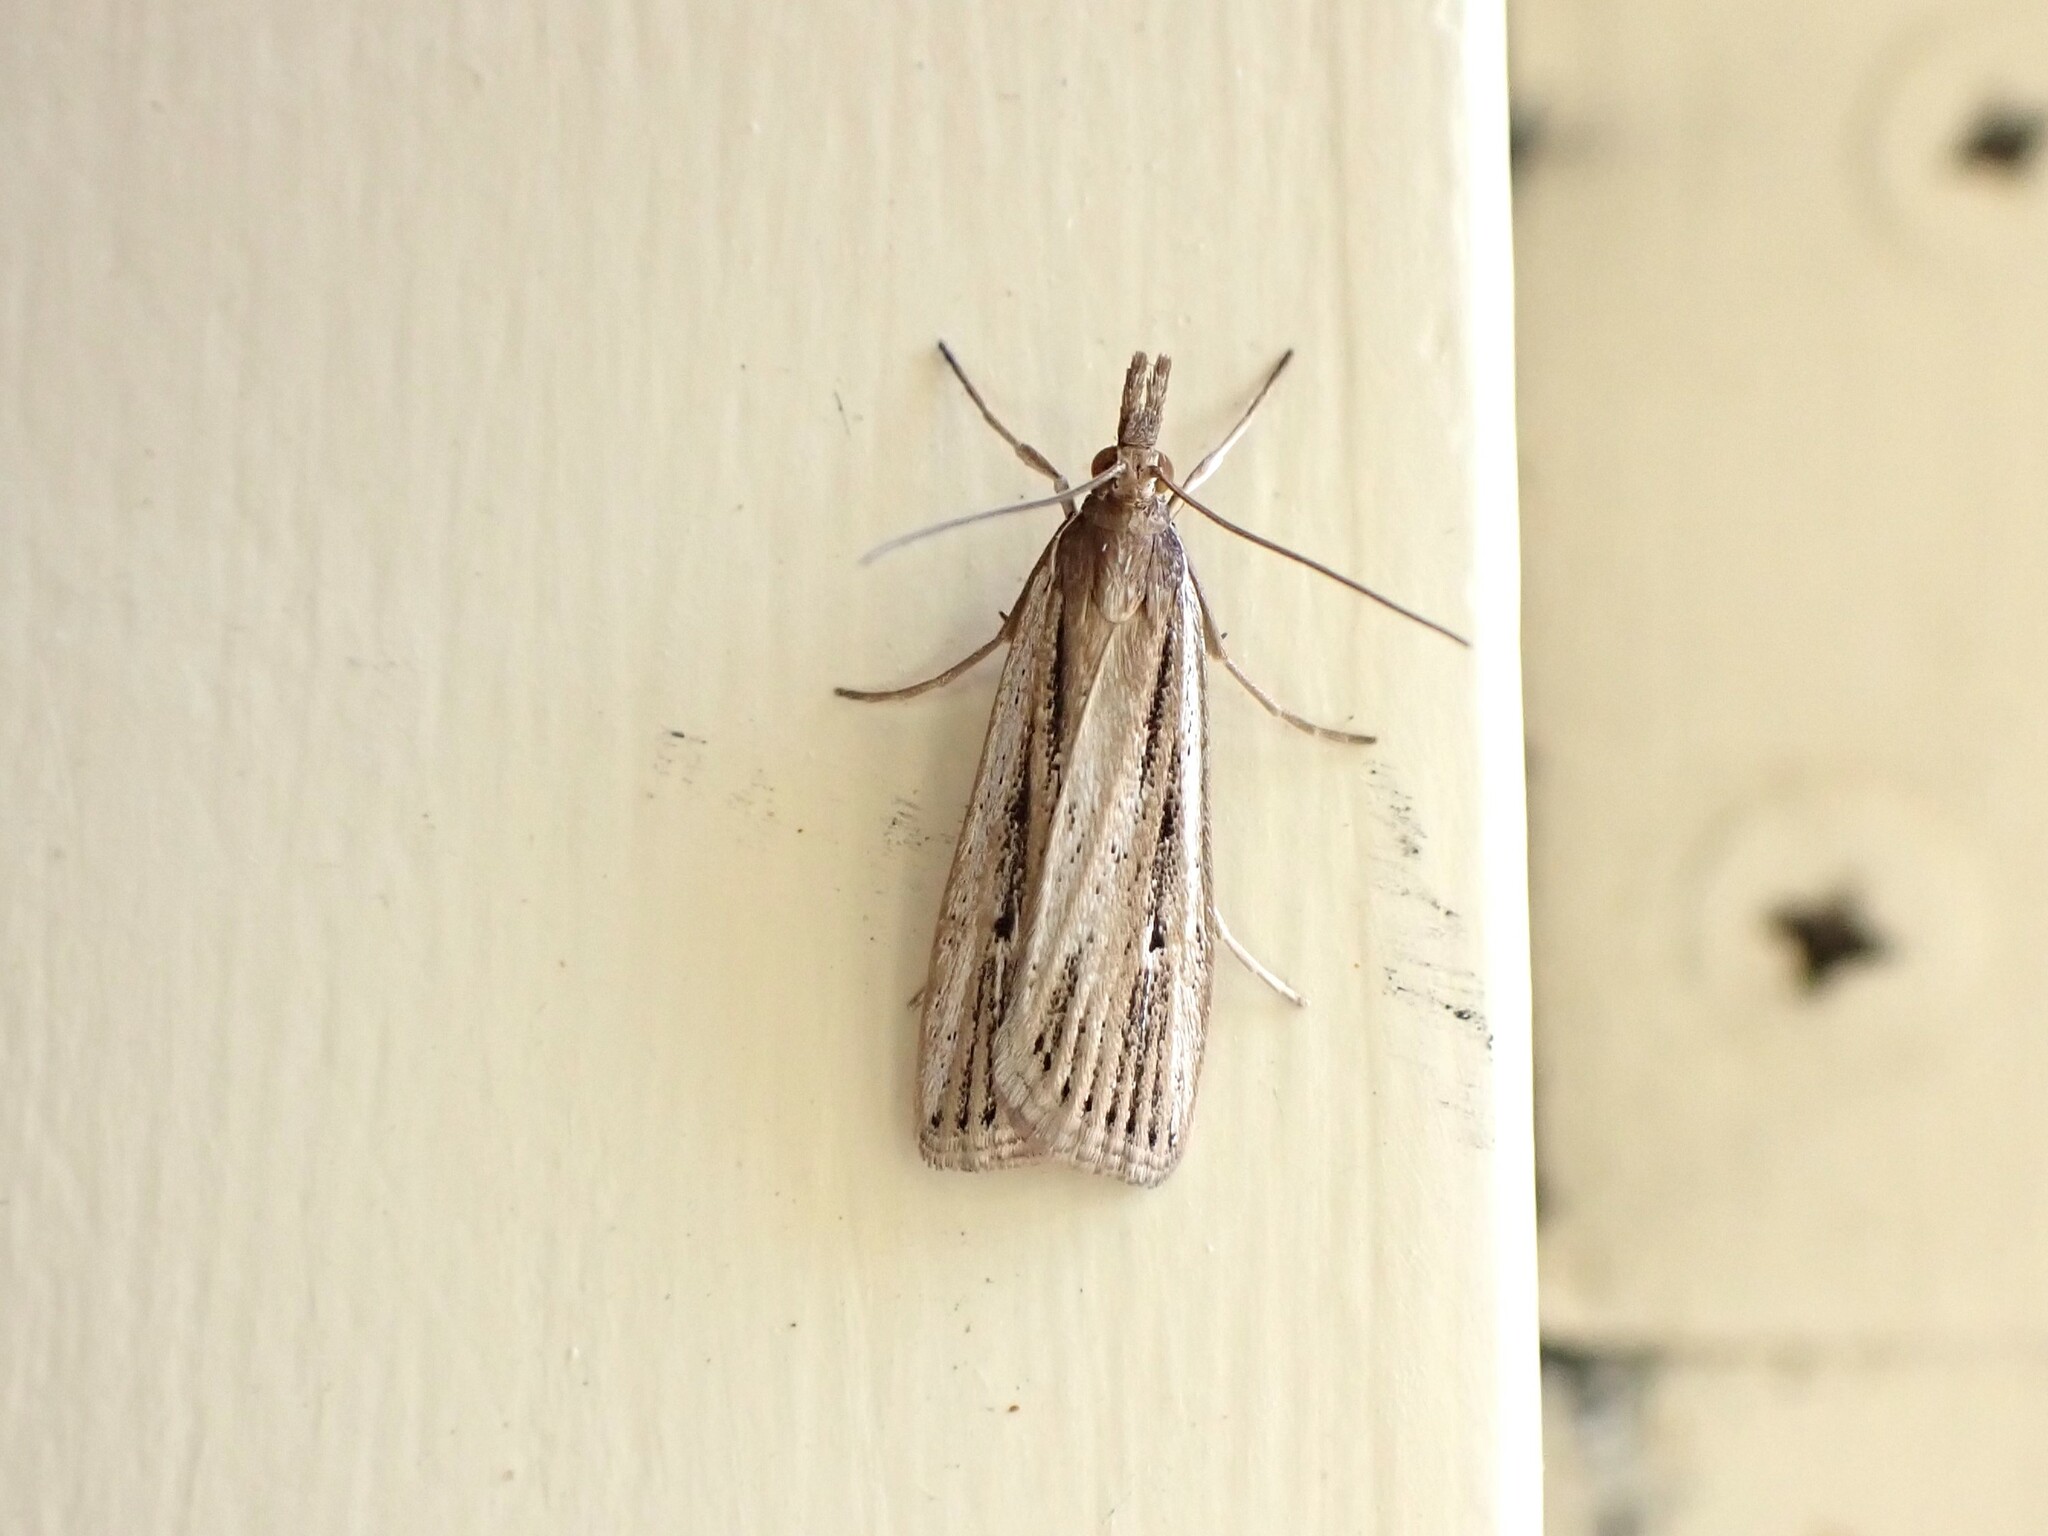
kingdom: Animalia
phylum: Arthropoda
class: Insecta
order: Lepidoptera
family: Crambidae
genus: Eudonia
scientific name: Eudonia sabulosella
